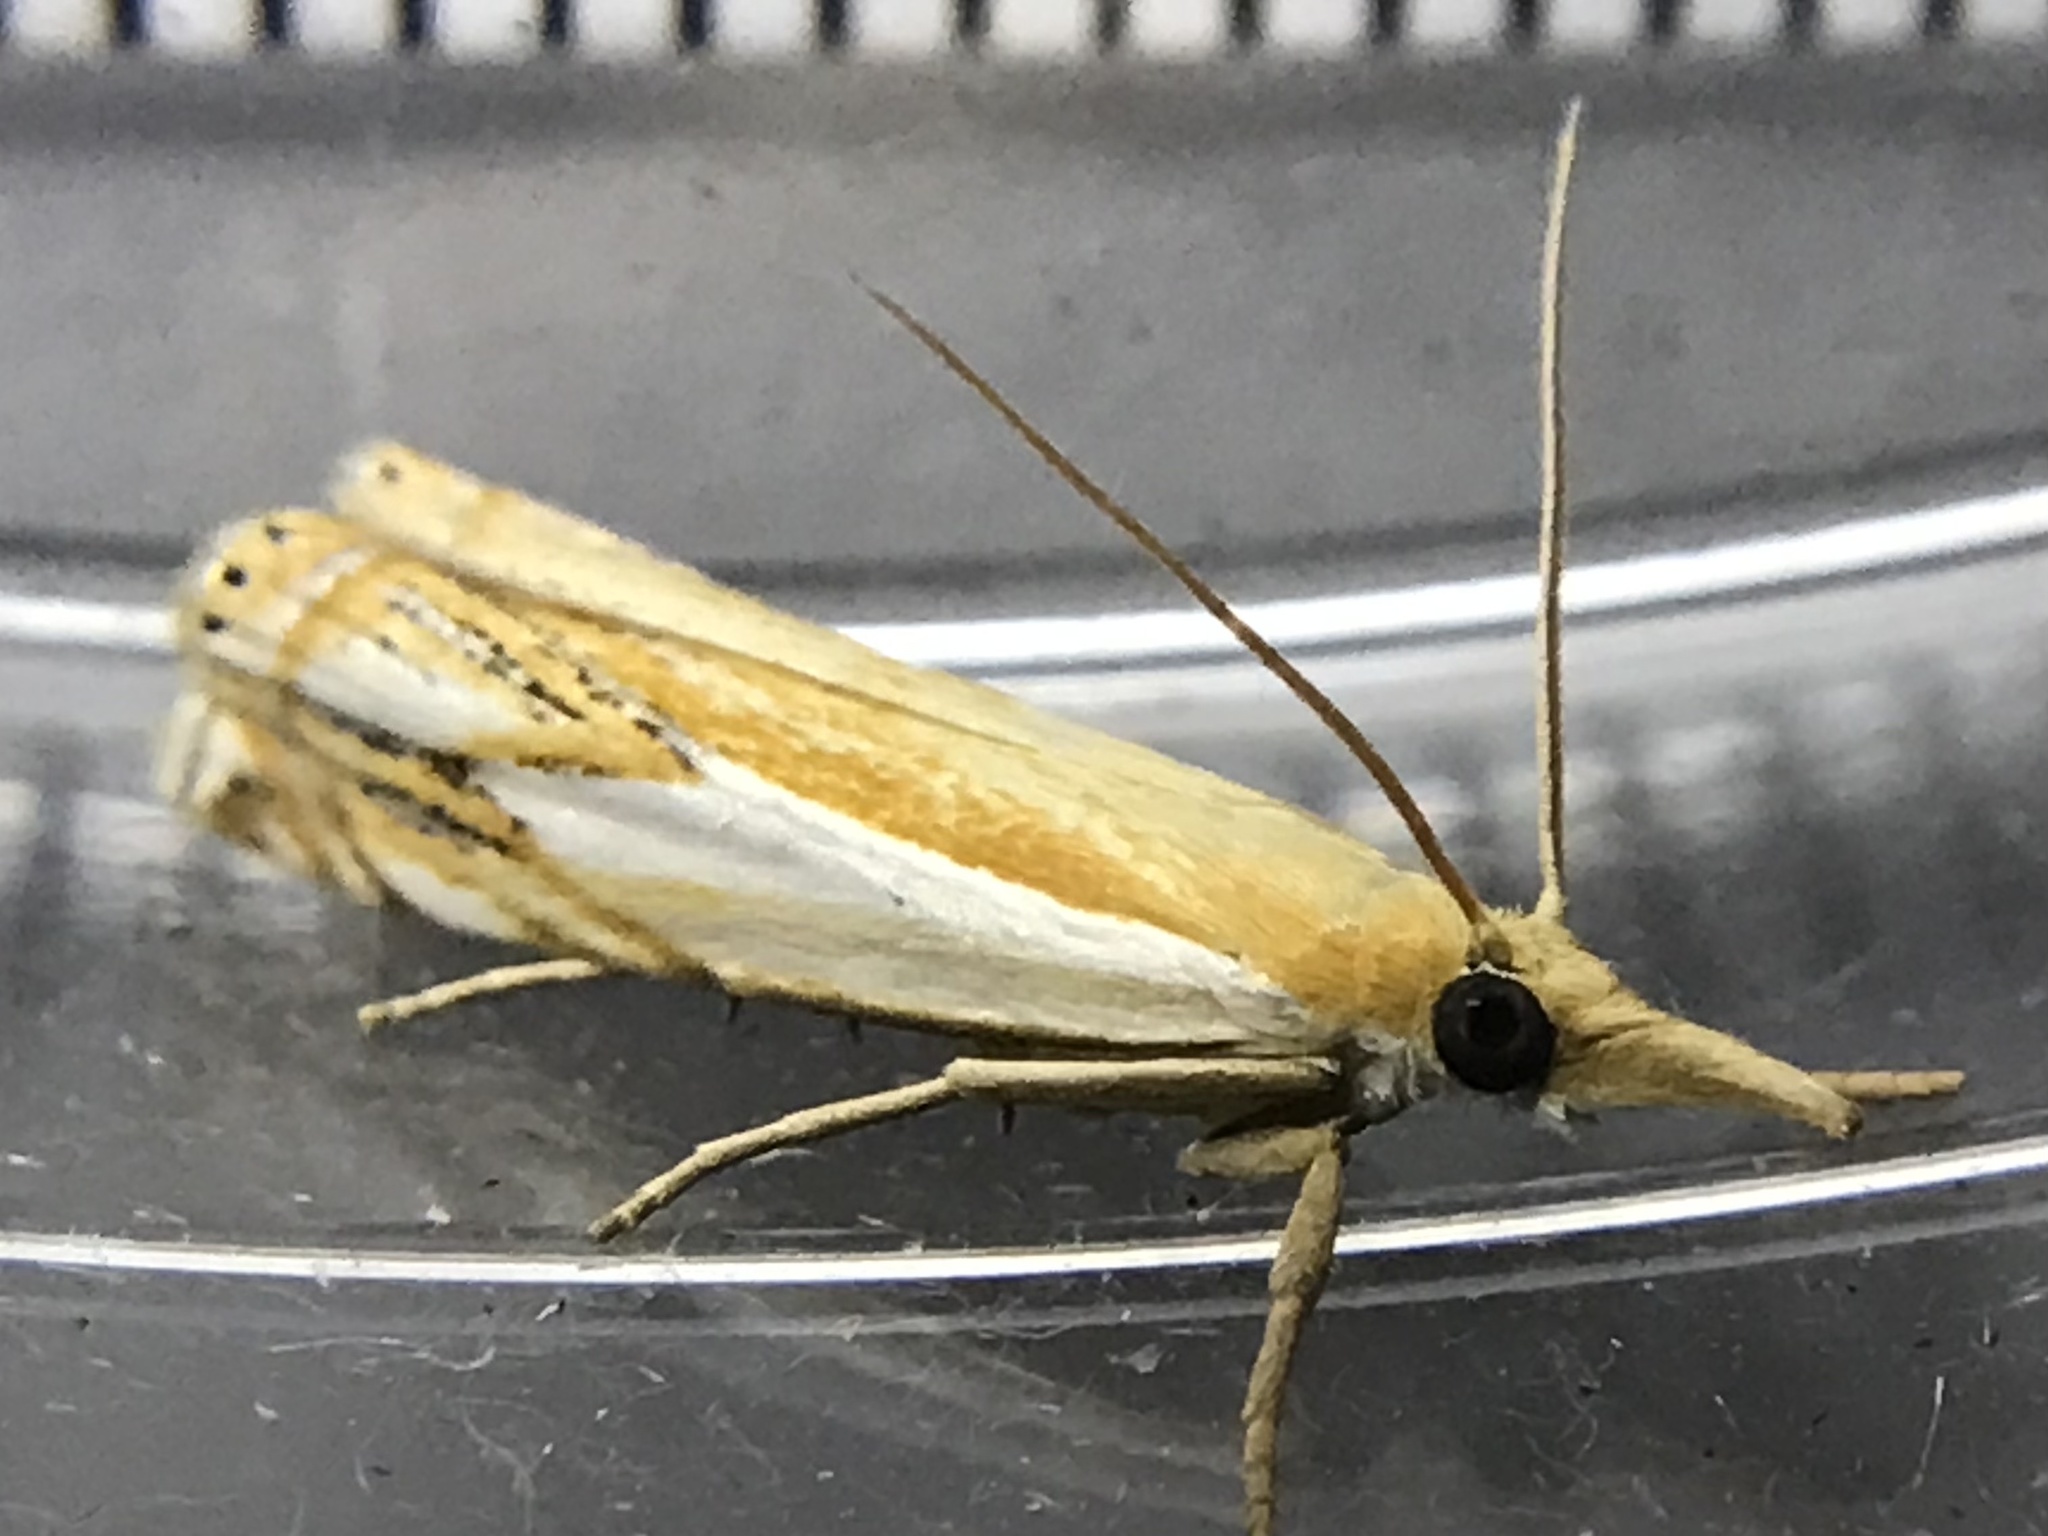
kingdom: Animalia
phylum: Arthropoda
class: Insecta
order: Lepidoptera
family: Crambidae
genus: Crambus
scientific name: Crambus agitatellus
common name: Double-banded grass-veneer
